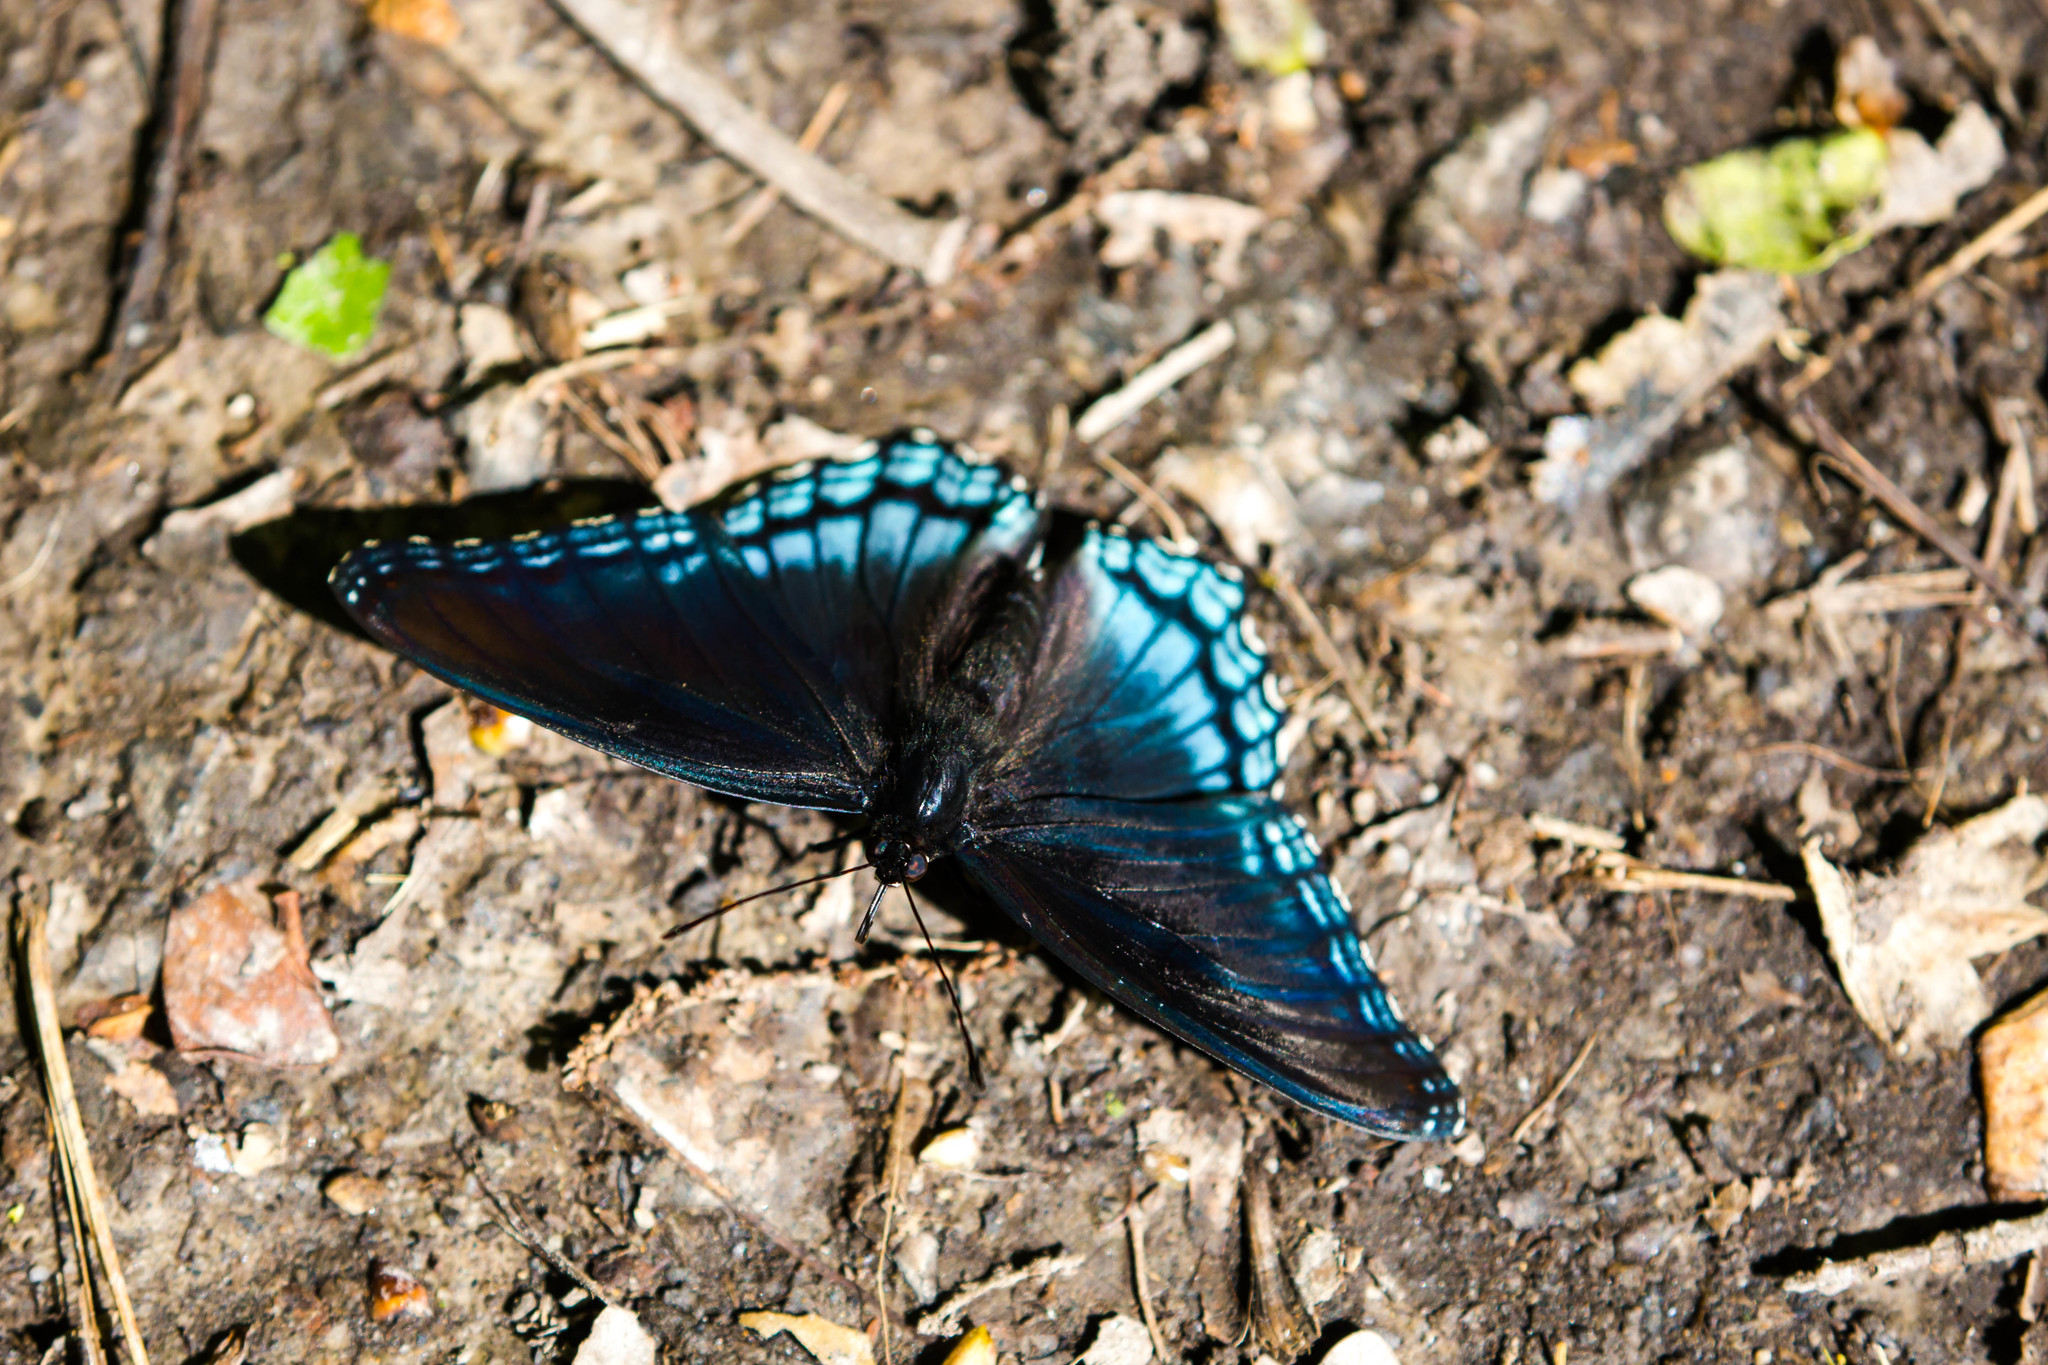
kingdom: Animalia
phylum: Arthropoda
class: Insecta
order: Lepidoptera
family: Nymphalidae
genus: Limenitis
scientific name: Limenitis astyanax
